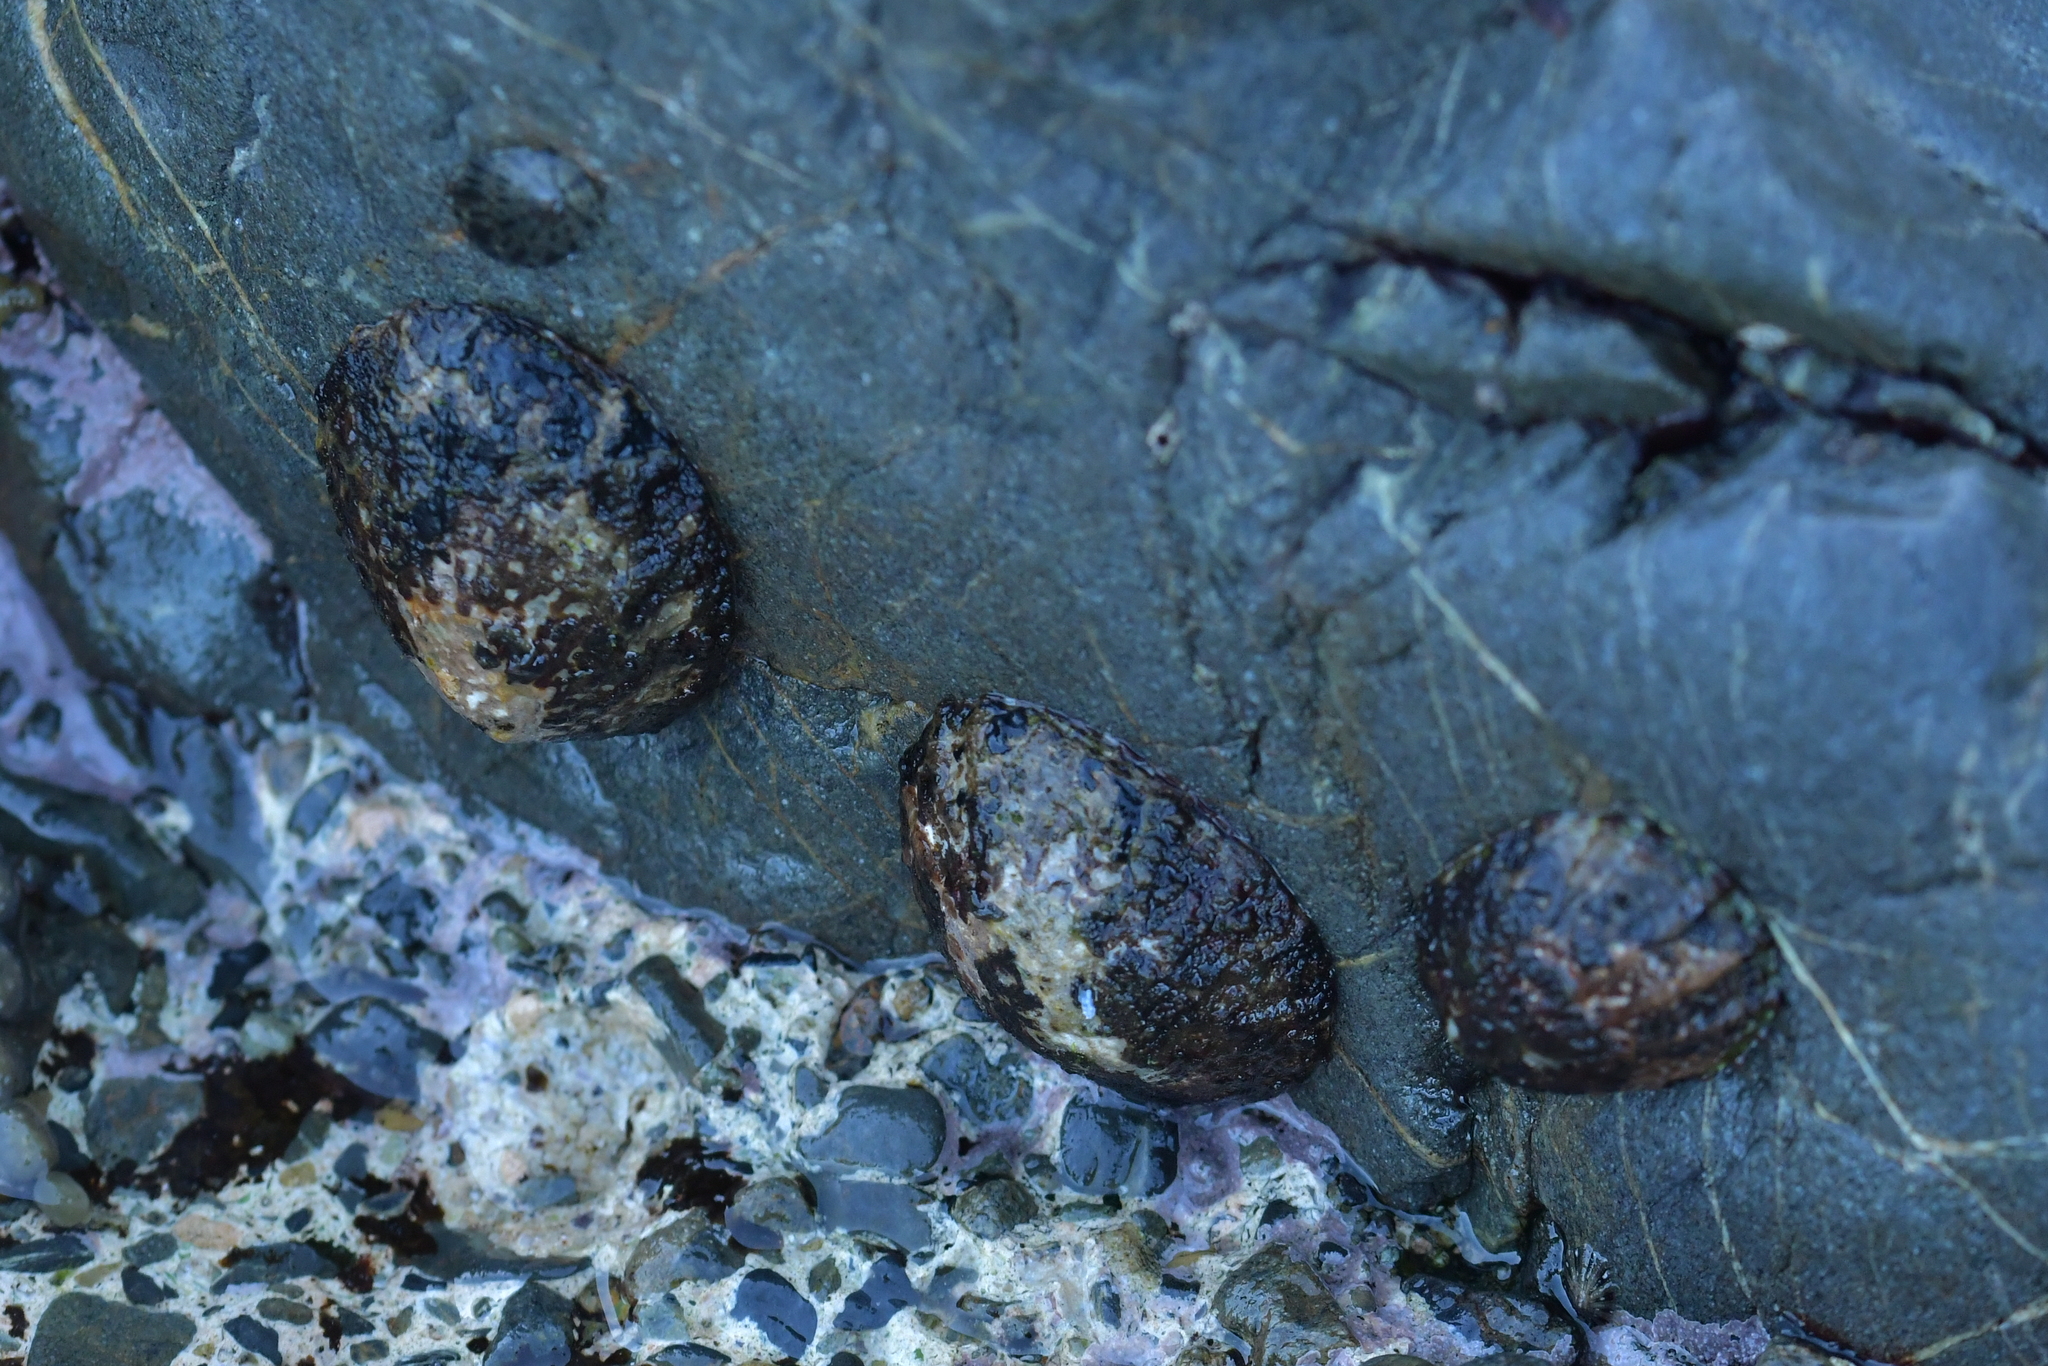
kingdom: Animalia
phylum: Mollusca
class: Gastropoda
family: Nacellidae
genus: Cellana
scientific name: Cellana radians
